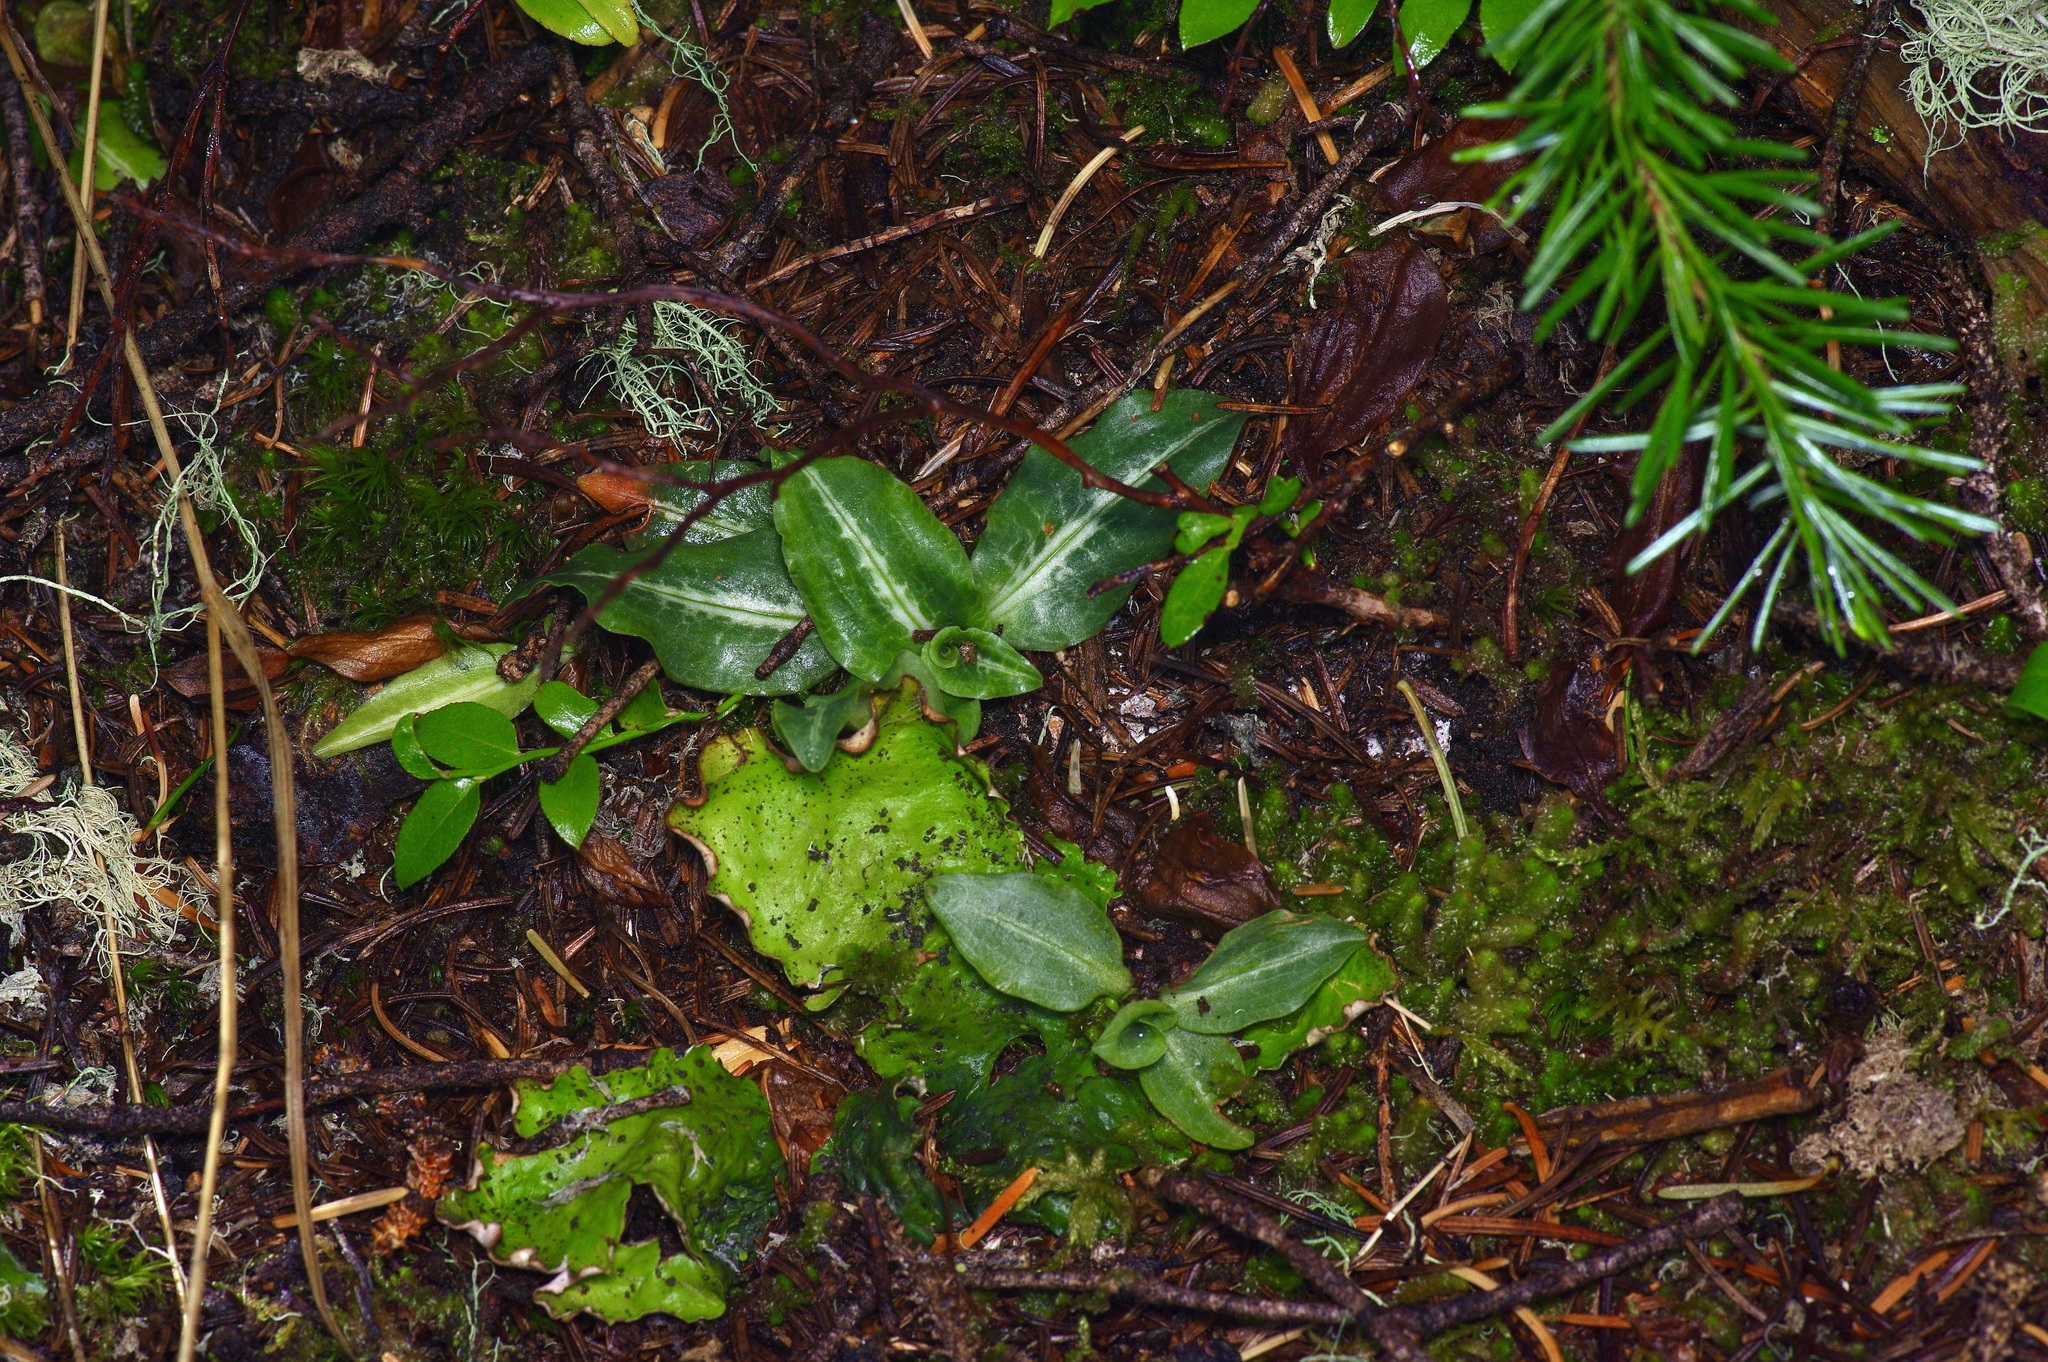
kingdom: Plantae
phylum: Tracheophyta
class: Liliopsida
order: Asparagales
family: Orchidaceae
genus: Goodyera
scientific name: Goodyera oblongifolia
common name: Giant rattlesnake-plantain
